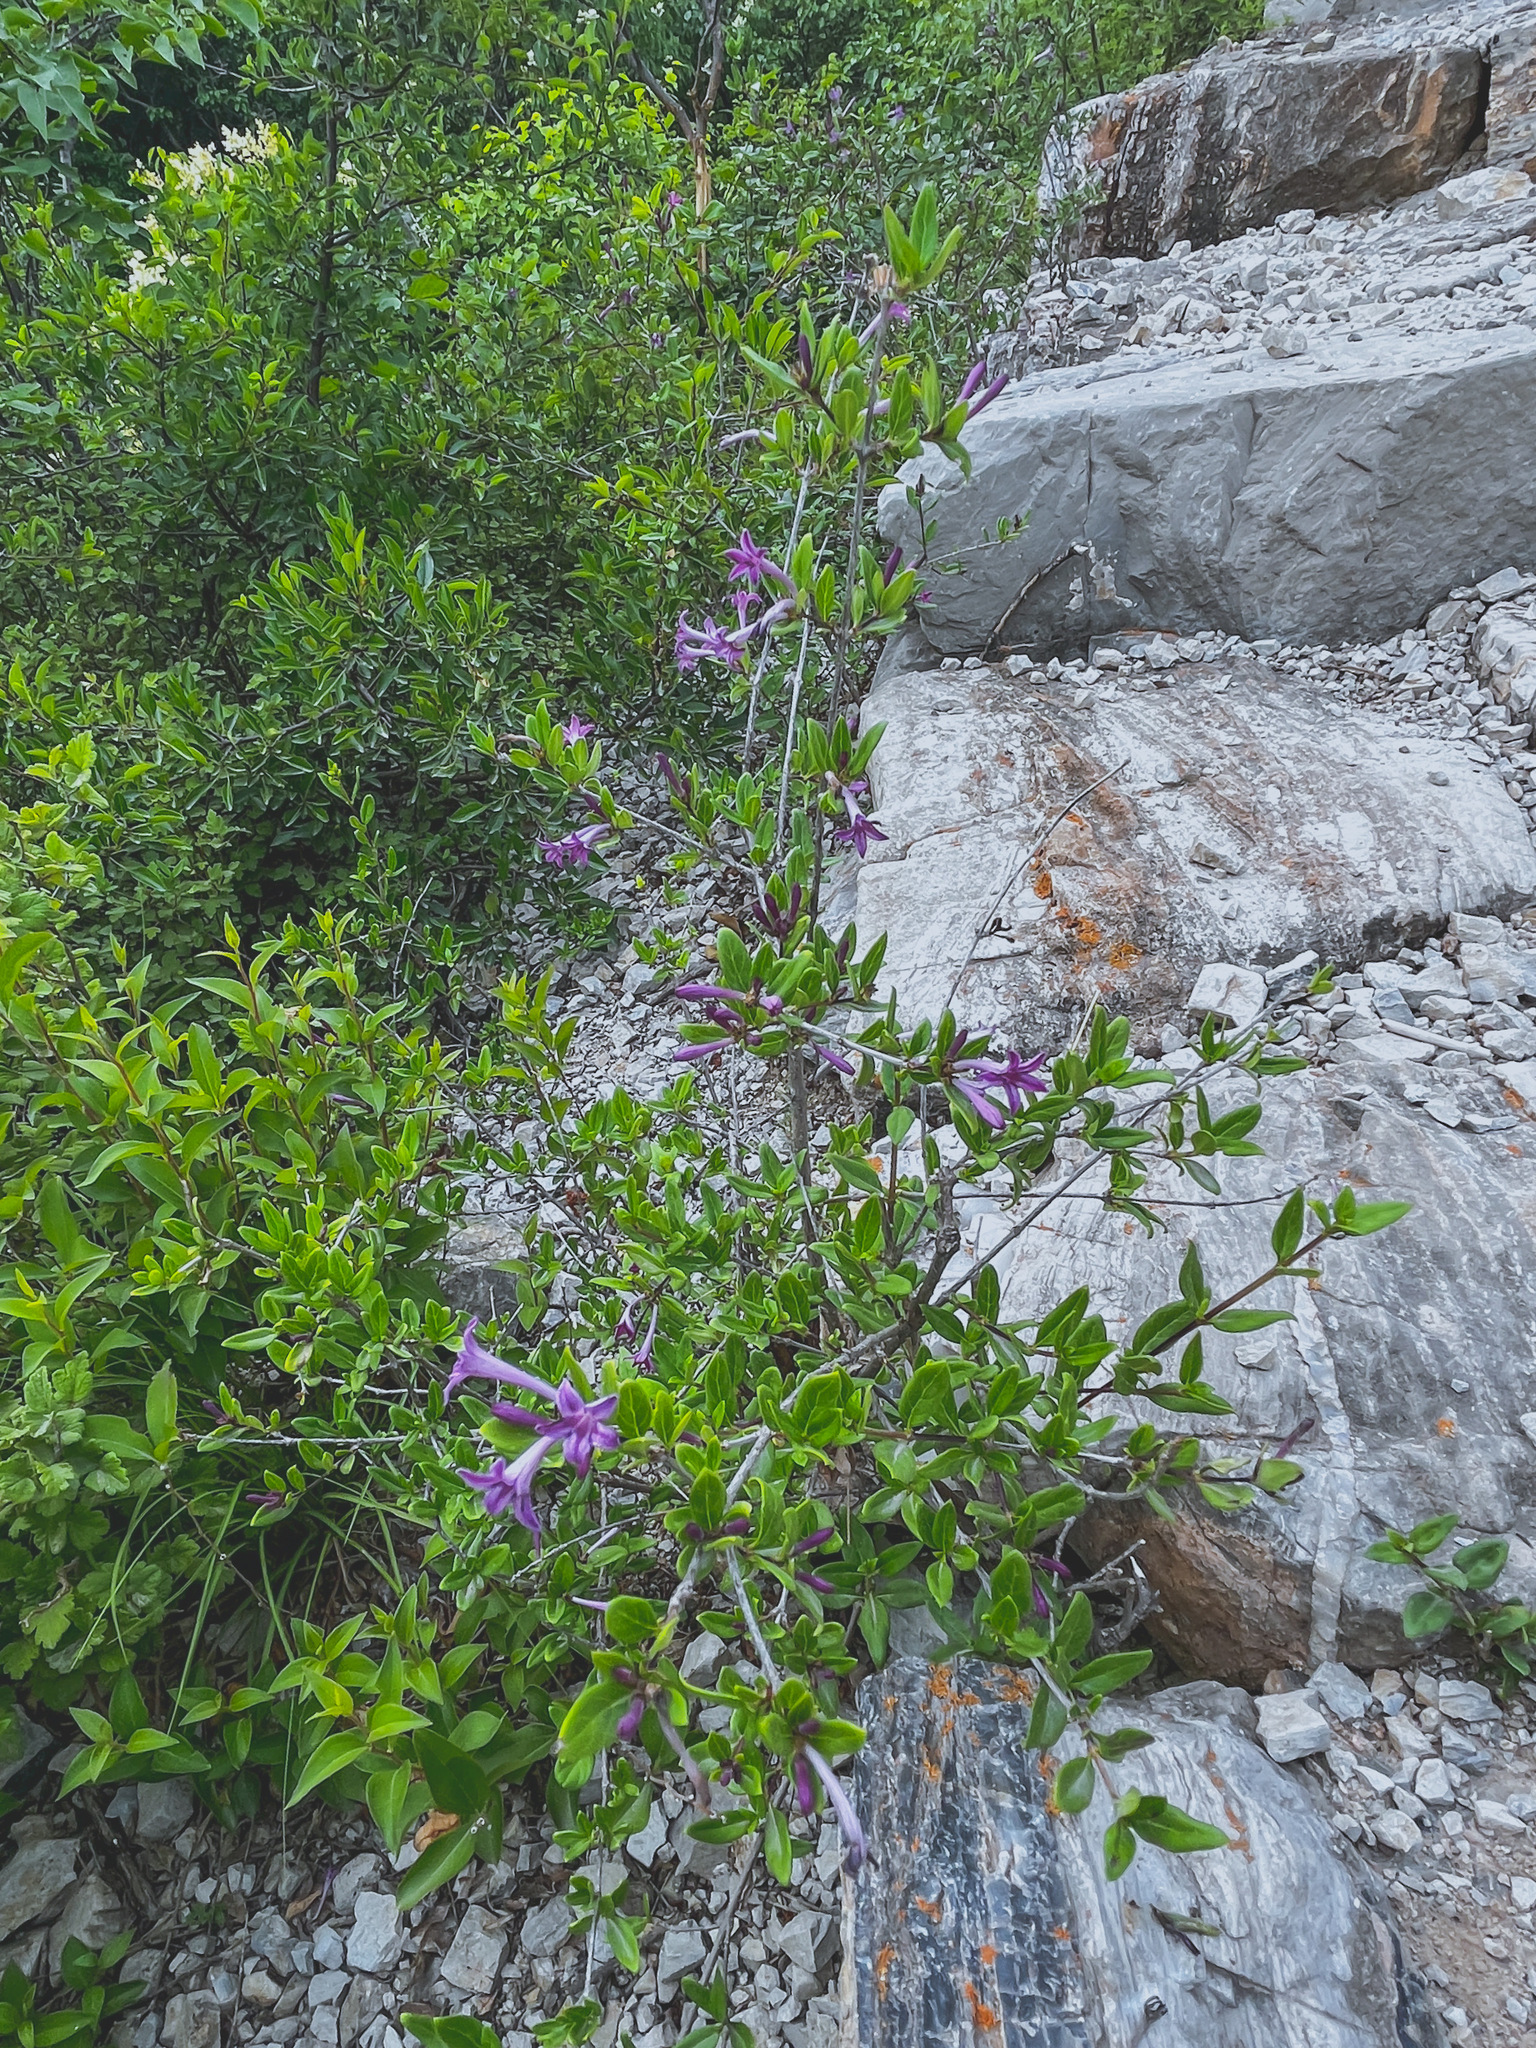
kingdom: Plantae
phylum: Tracheophyta
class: Magnoliopsida
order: Gentianales
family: Rubiaceae
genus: Leptodermis
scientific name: Leptodermis oblonga
